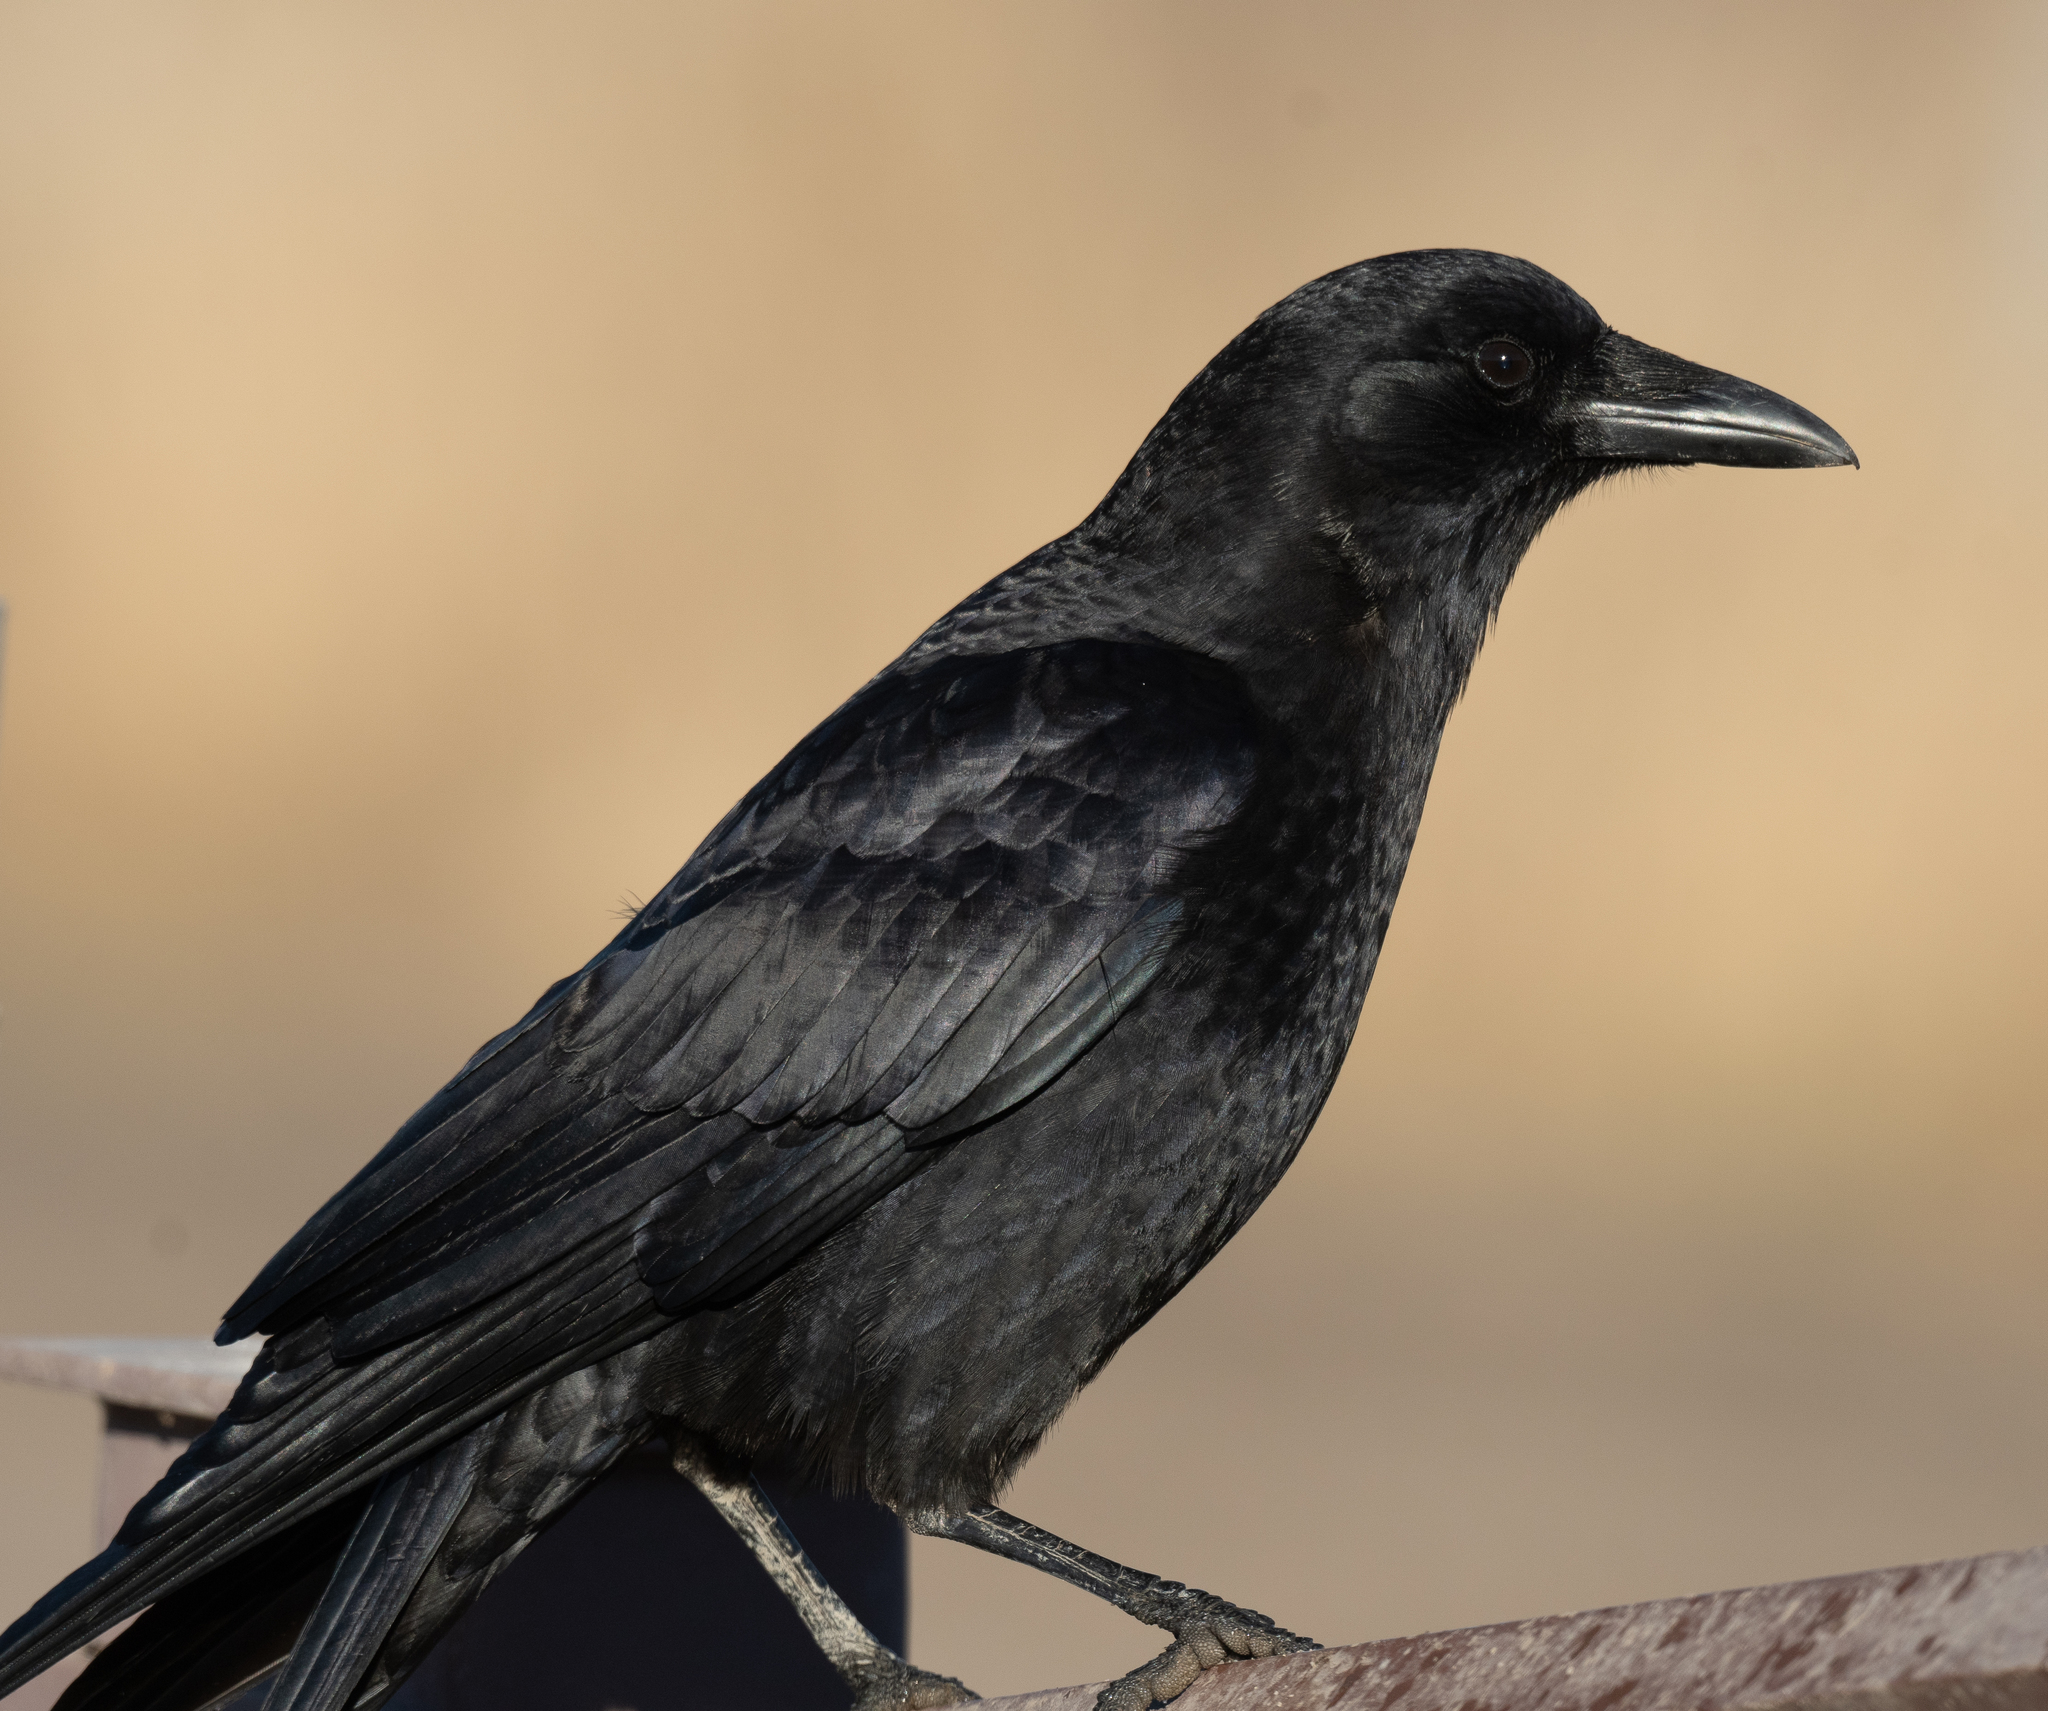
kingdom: Animalia
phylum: Chordata
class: Aves
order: Passeriformes
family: Corvidae
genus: Corvus
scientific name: Corvus brachyrhynchos
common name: American crow
